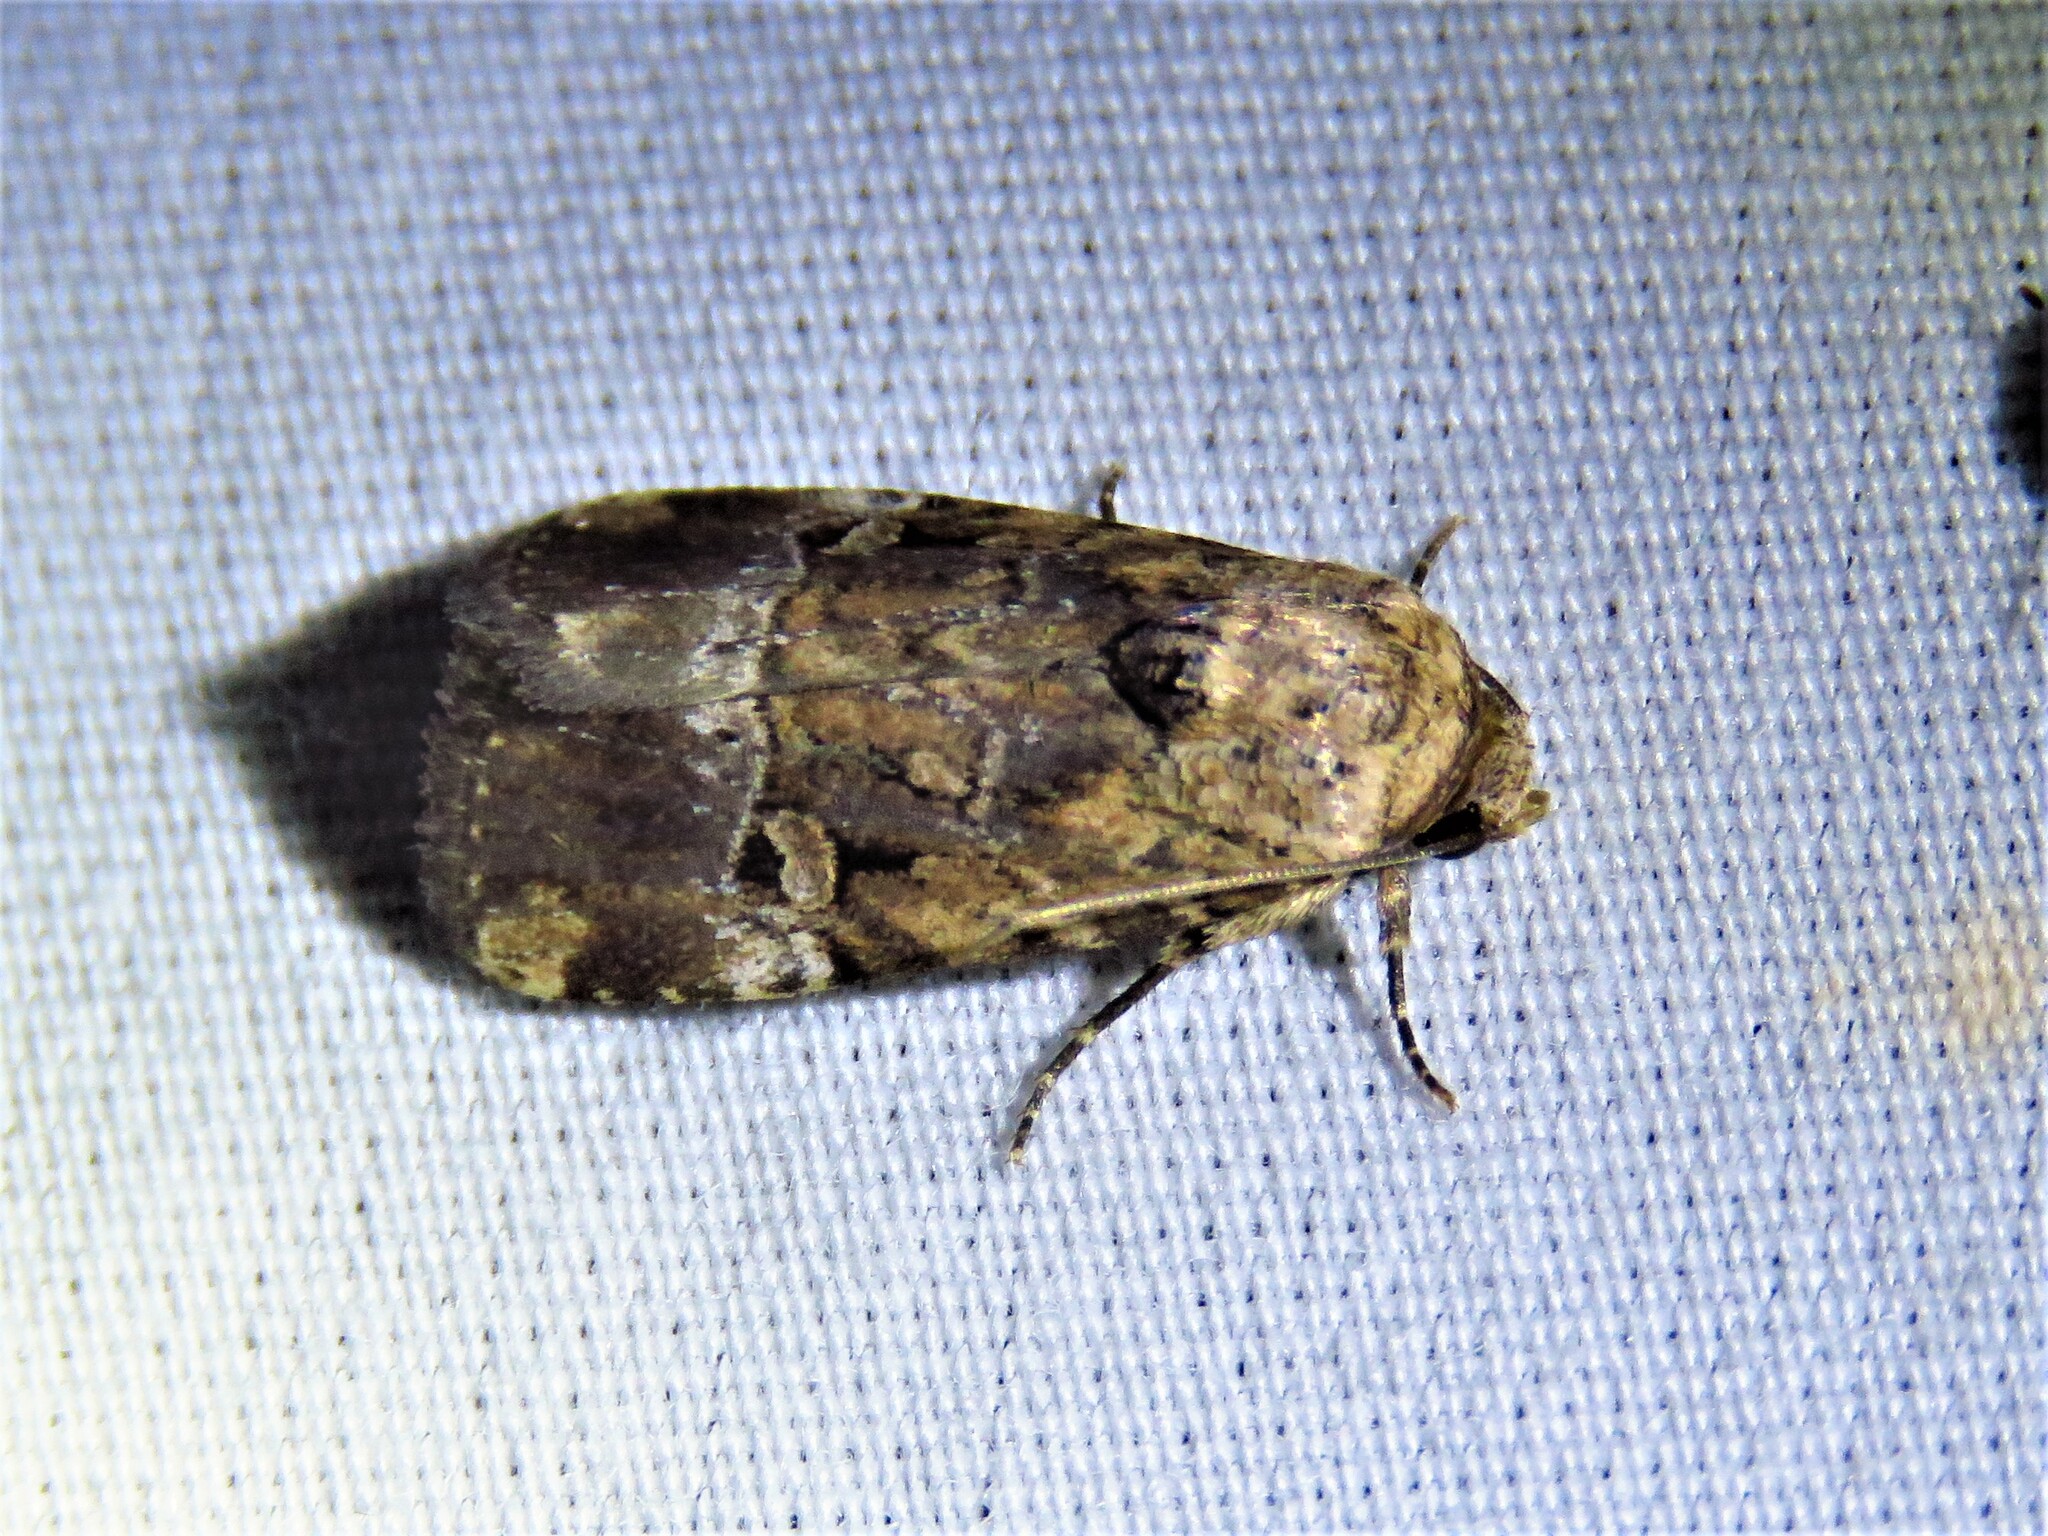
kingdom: Animalia
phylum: Arthropoda
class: Insecta
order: Lepidoptera
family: Noctuidae
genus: Elaphria
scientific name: Elaphria chalcedonia
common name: Chalcedony midget
